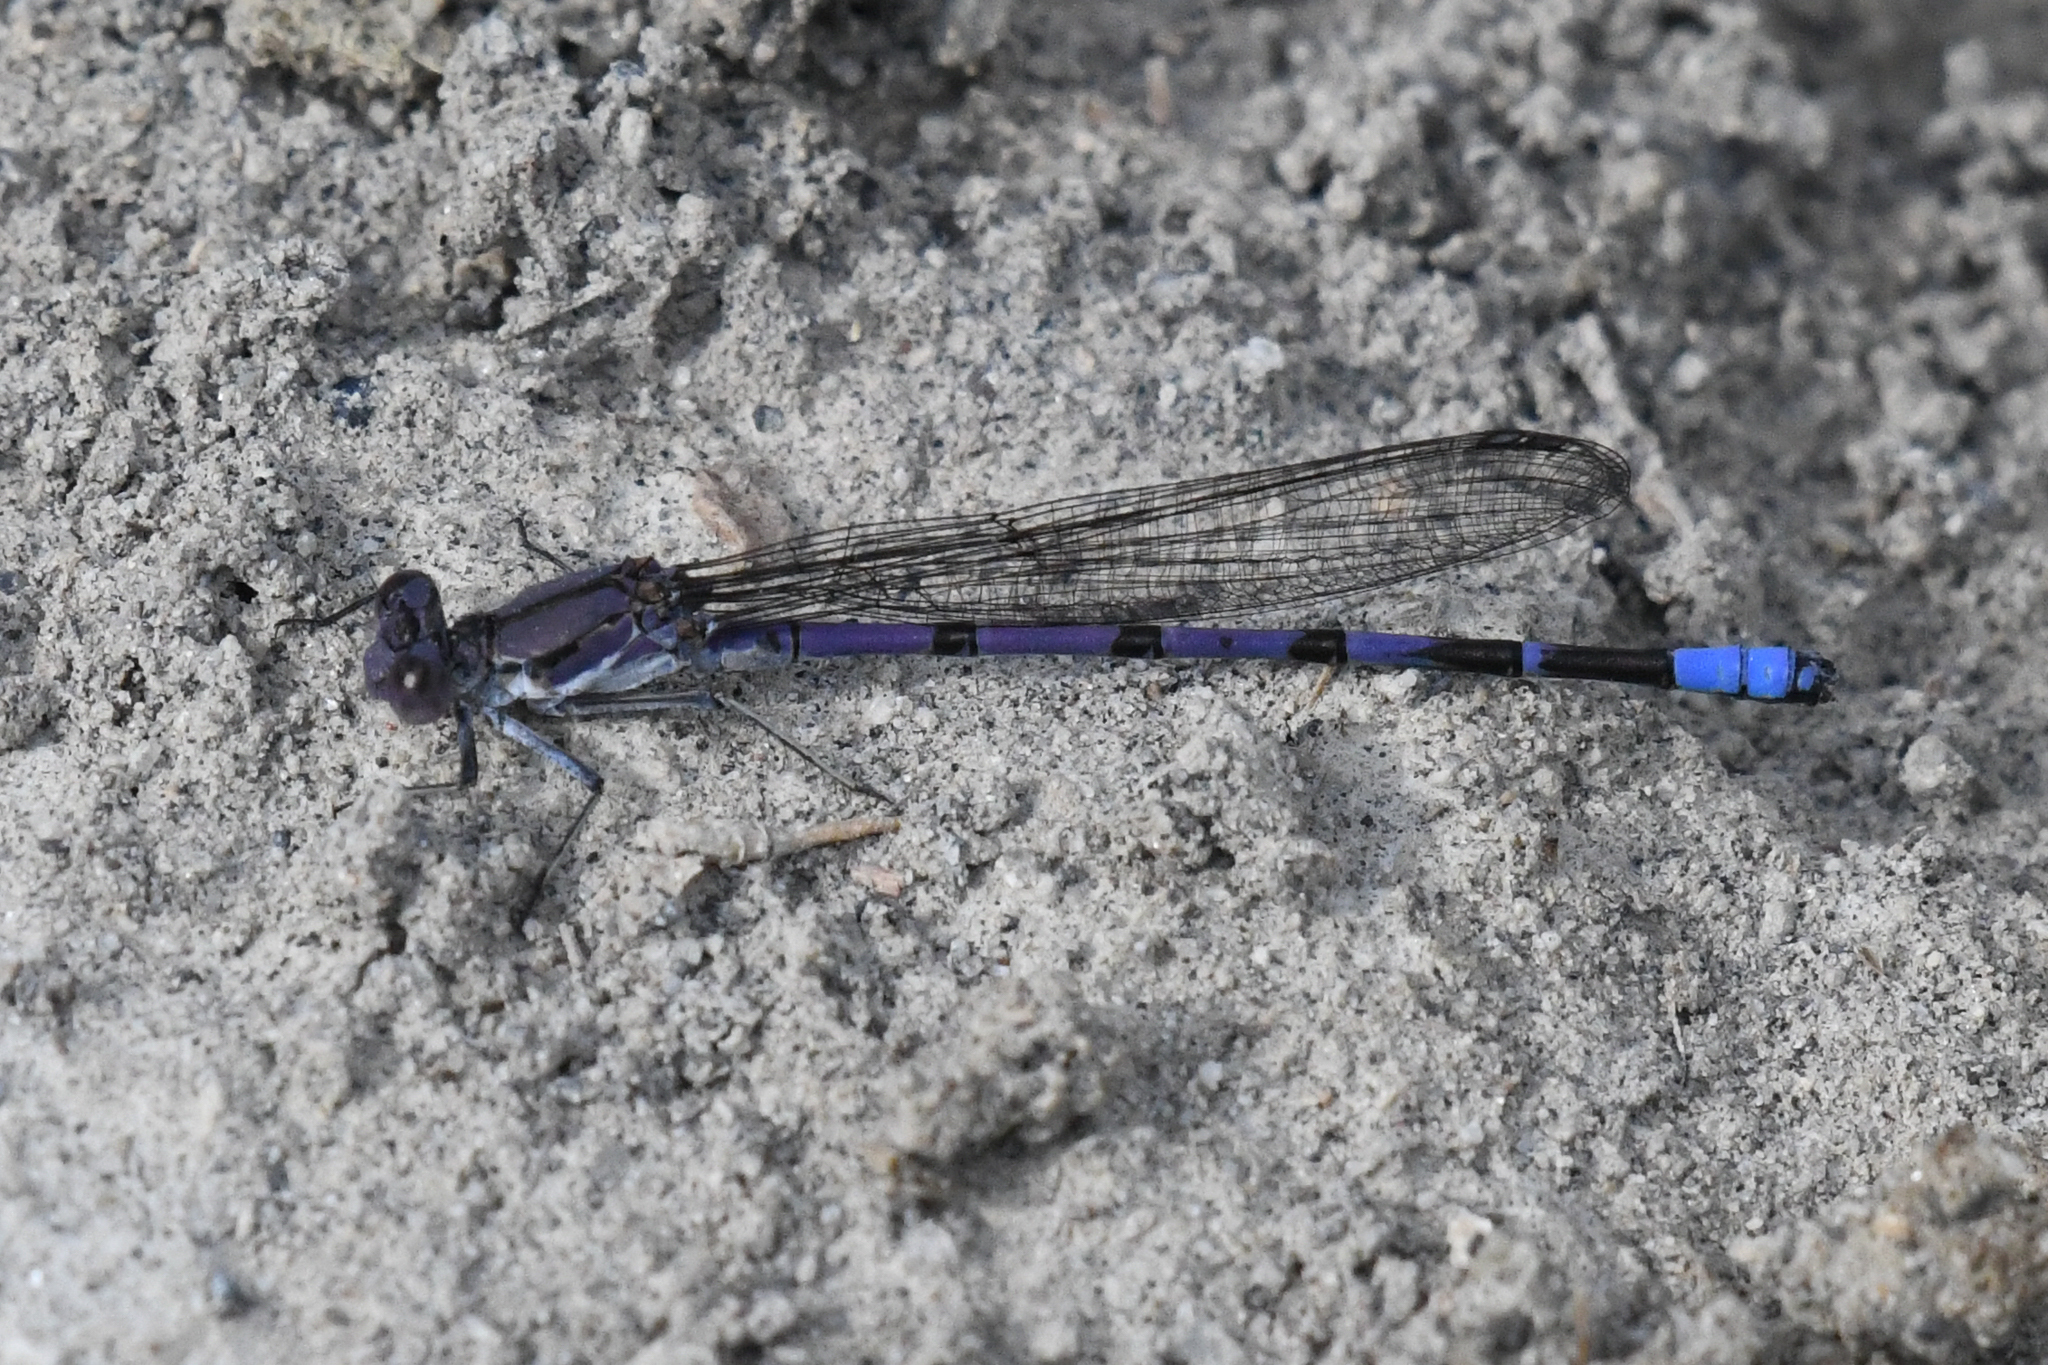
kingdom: Animalia
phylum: Arthropoda
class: Insecta
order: Odonata
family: Coenagrionidae
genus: Argia
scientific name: Argia emma
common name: Emma's dancer
